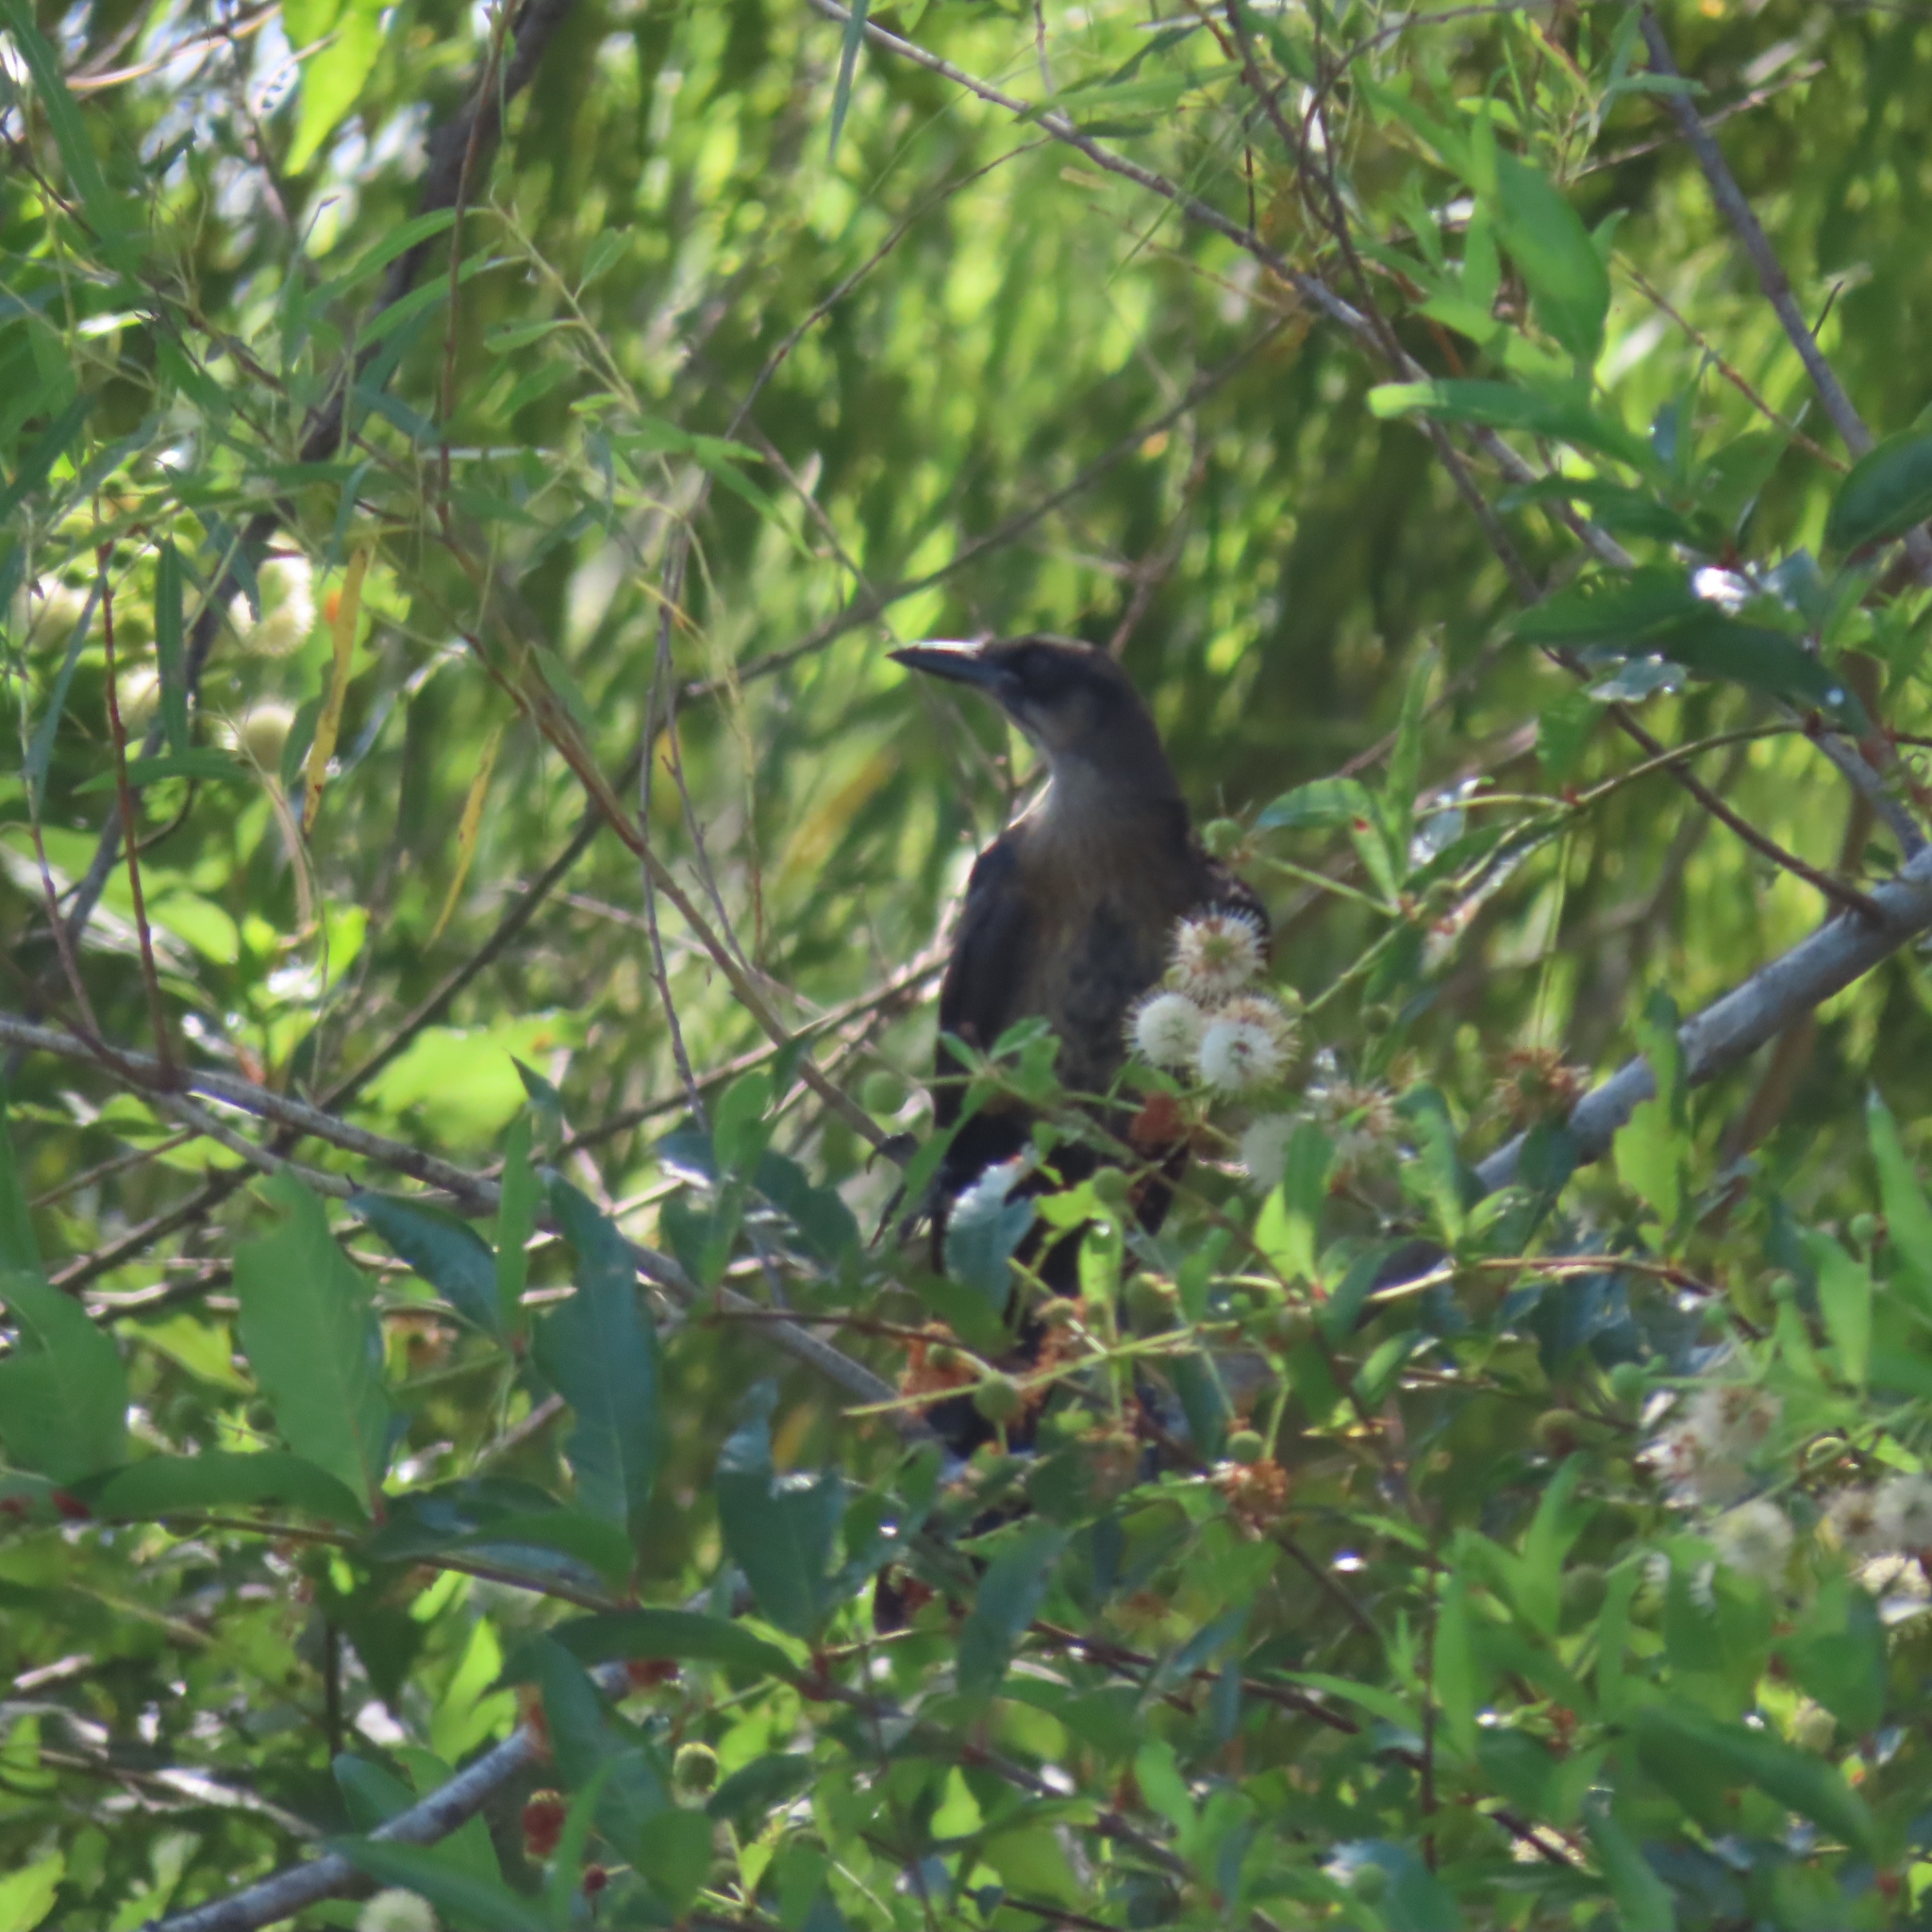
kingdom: Animalia
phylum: Chordata
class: Aves
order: Passeriformes
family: Icteridae
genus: Quiscalus
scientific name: Quiscalus mexicanus
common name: Great-tailed grackle
